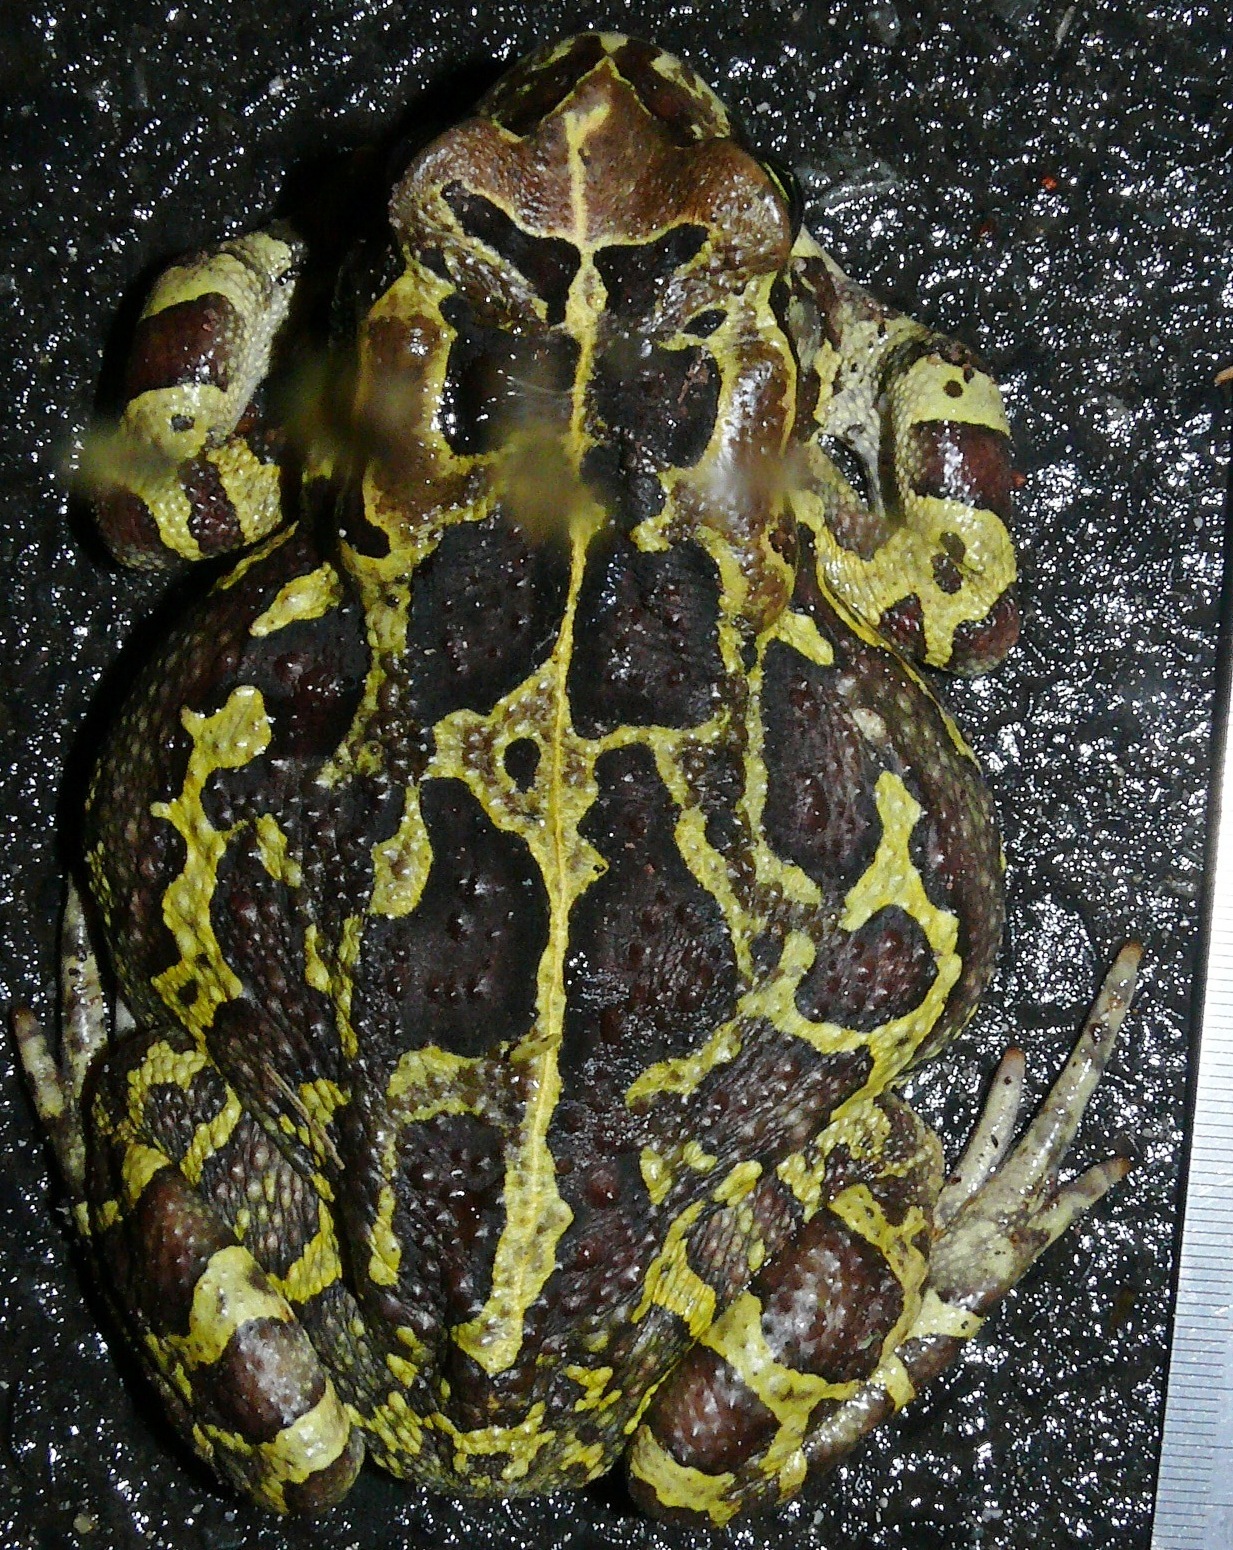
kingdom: Animalia
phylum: Chordata
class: Amphibia
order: Anura
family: Bufonidae
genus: Sclerophrys
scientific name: Sclerophrys pantherina
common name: Panther toad
